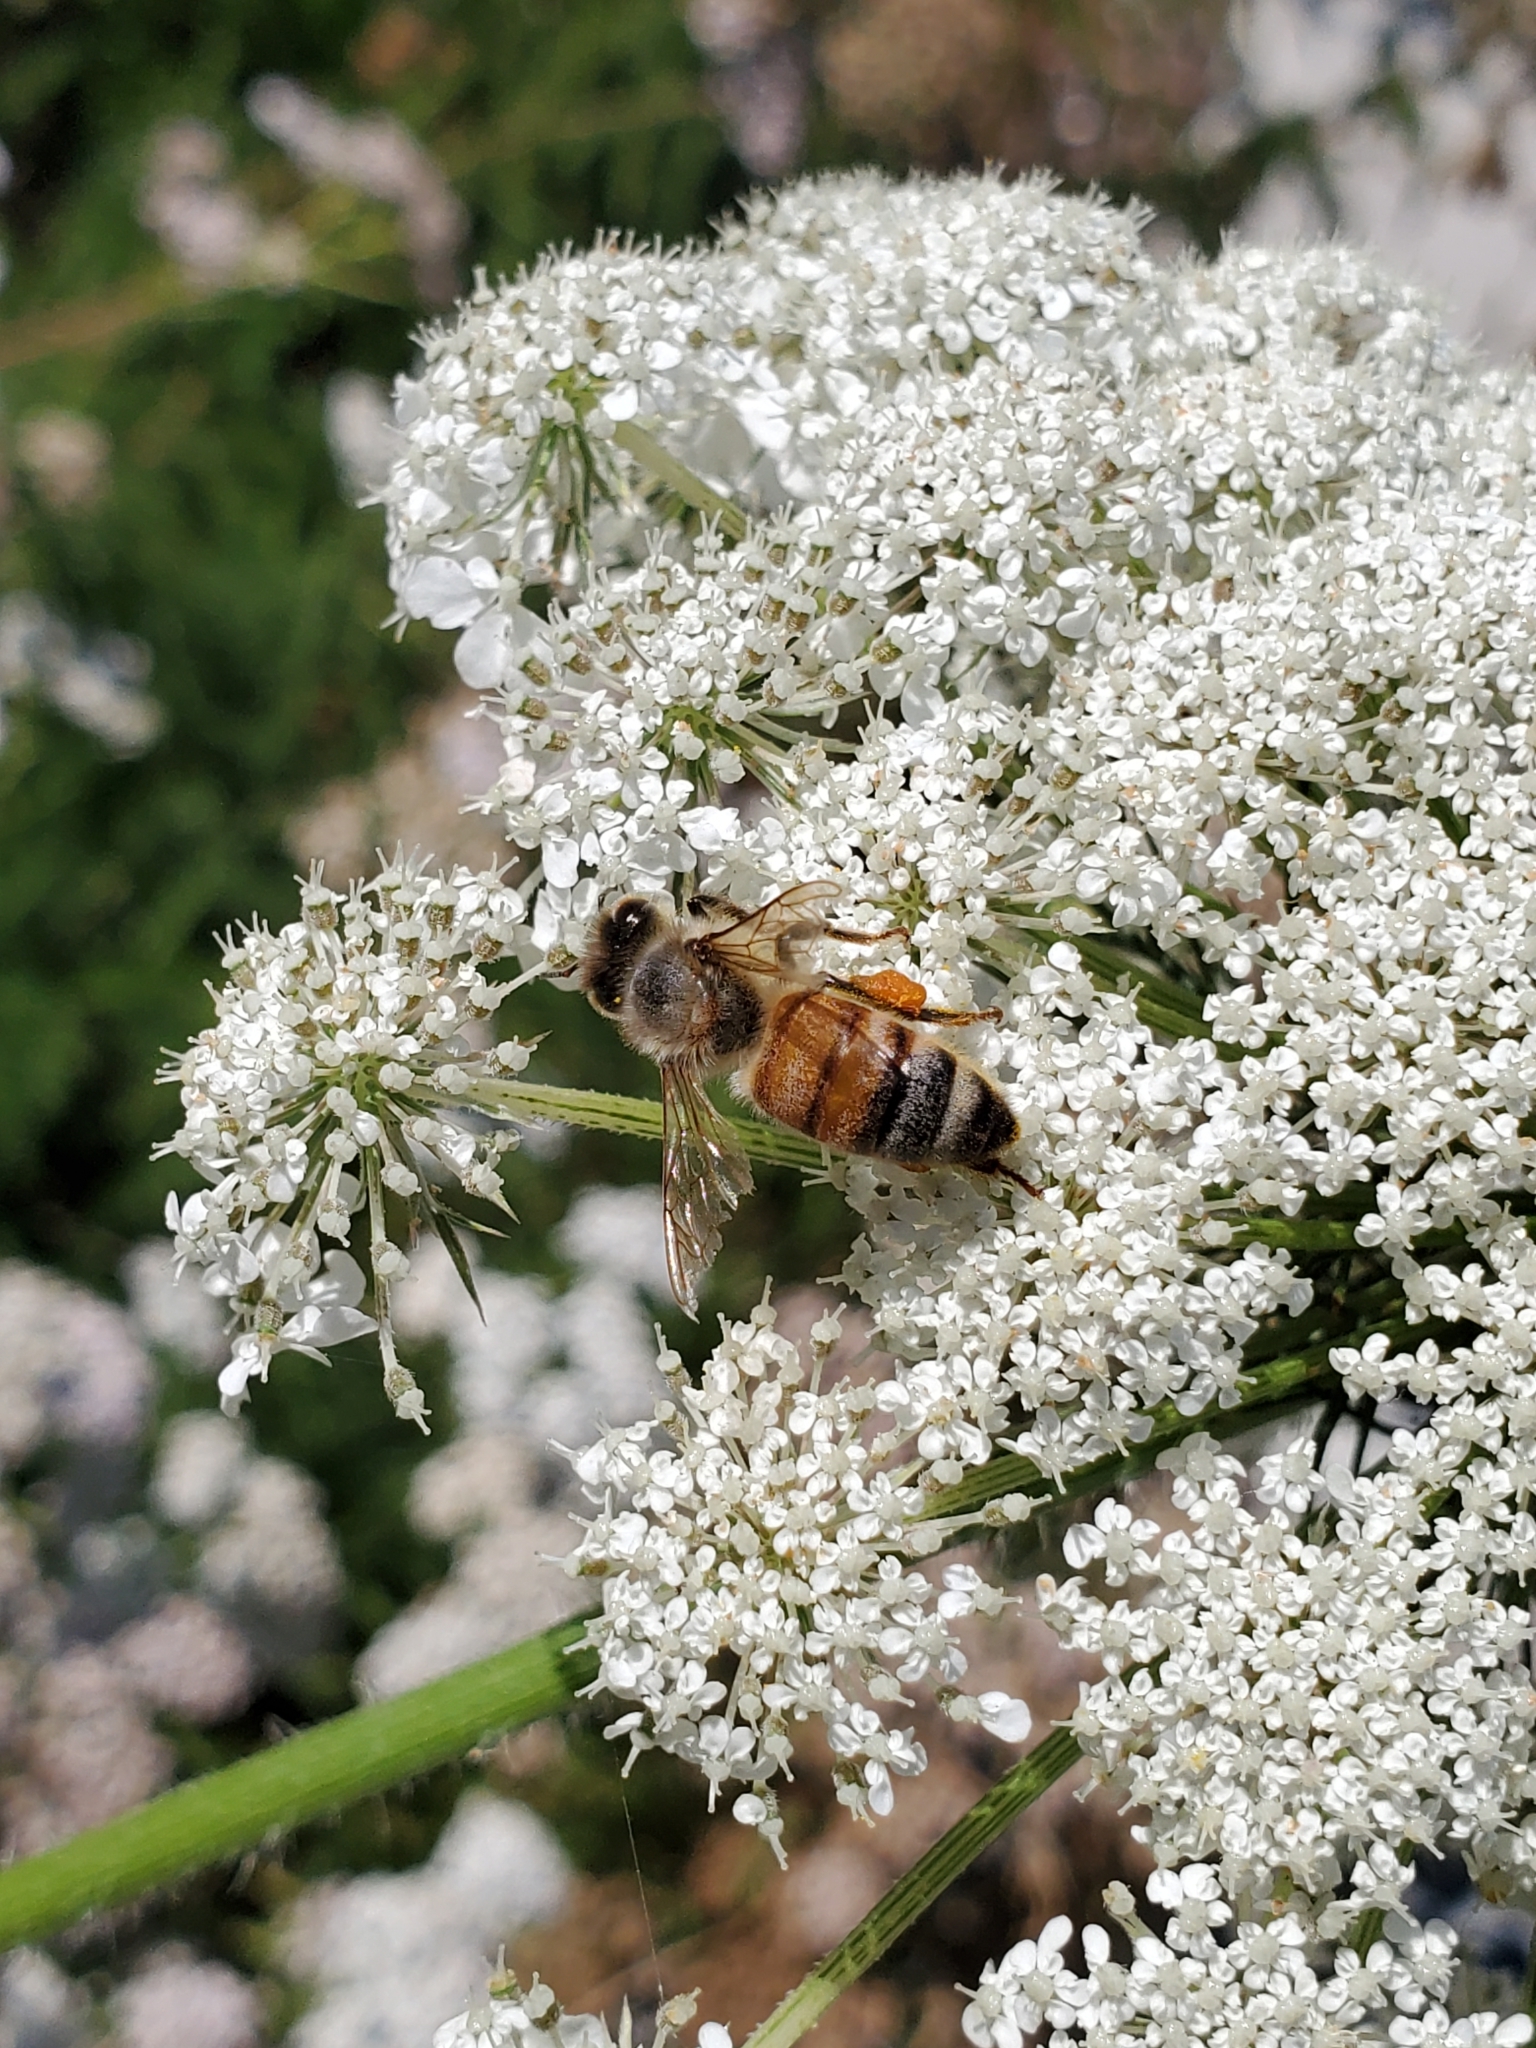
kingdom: Animalia
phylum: Arthropoda
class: Insecta
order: Hymenoptera
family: Apidae
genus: Apis
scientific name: Apis mellifera
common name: Honey bee
